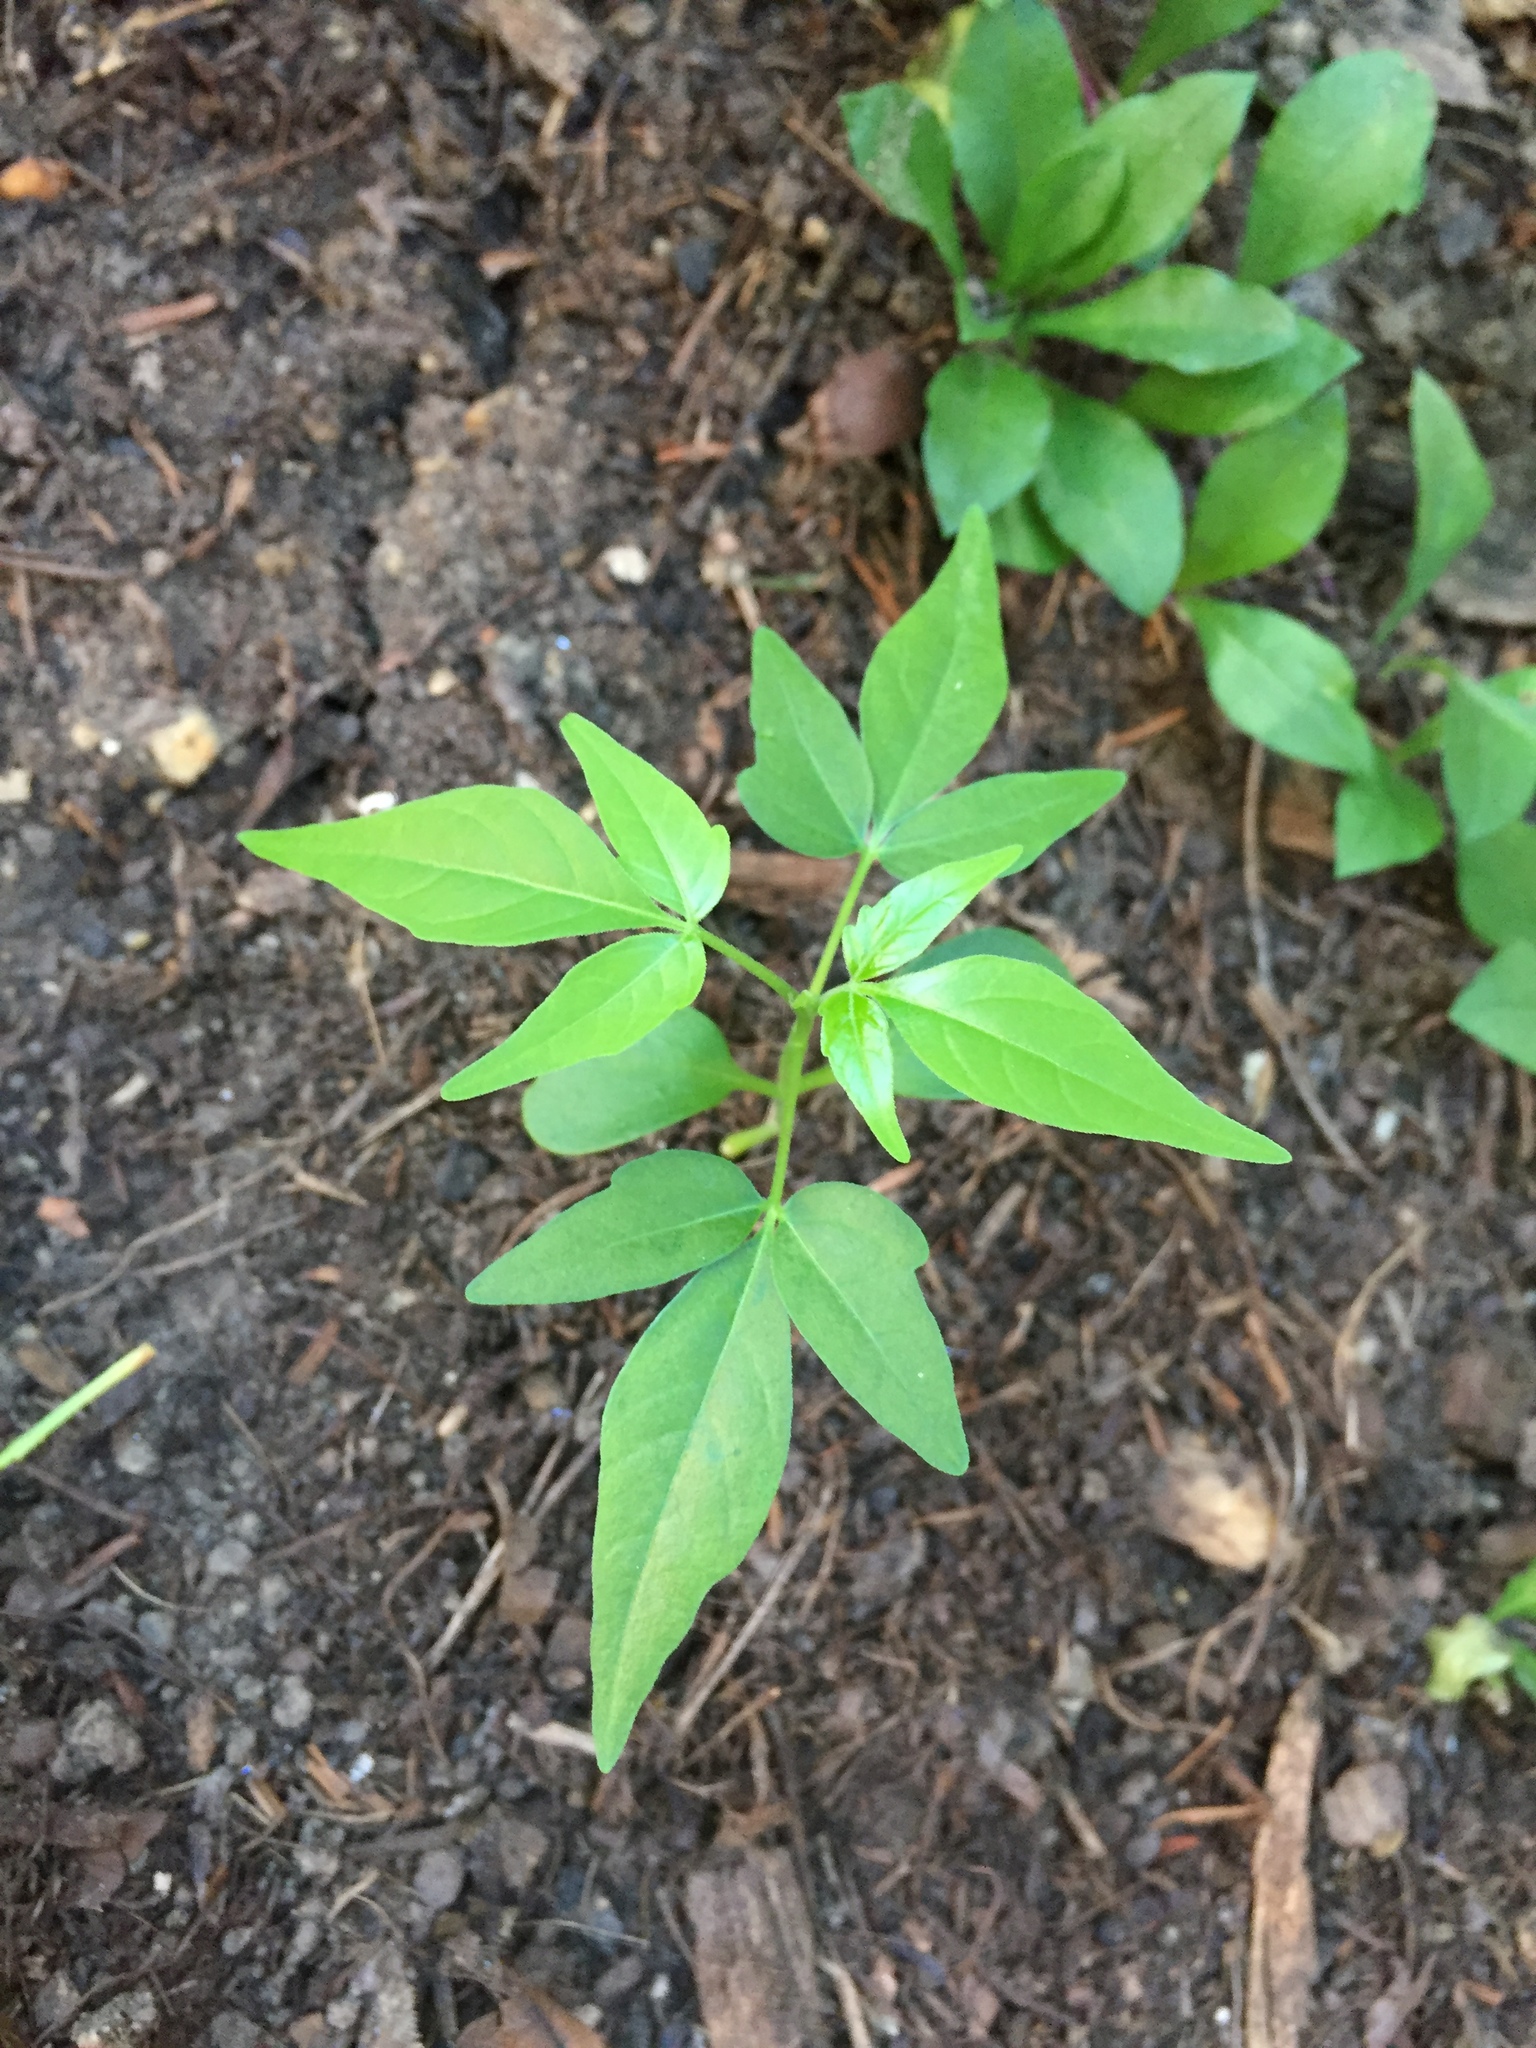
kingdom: Plantae
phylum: Tracheophyta
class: Magnoliopsida
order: Sapindales
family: Simaroubaceae
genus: Ailanthus
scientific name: Ailanthus altissima
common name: Tree-of-heaven
